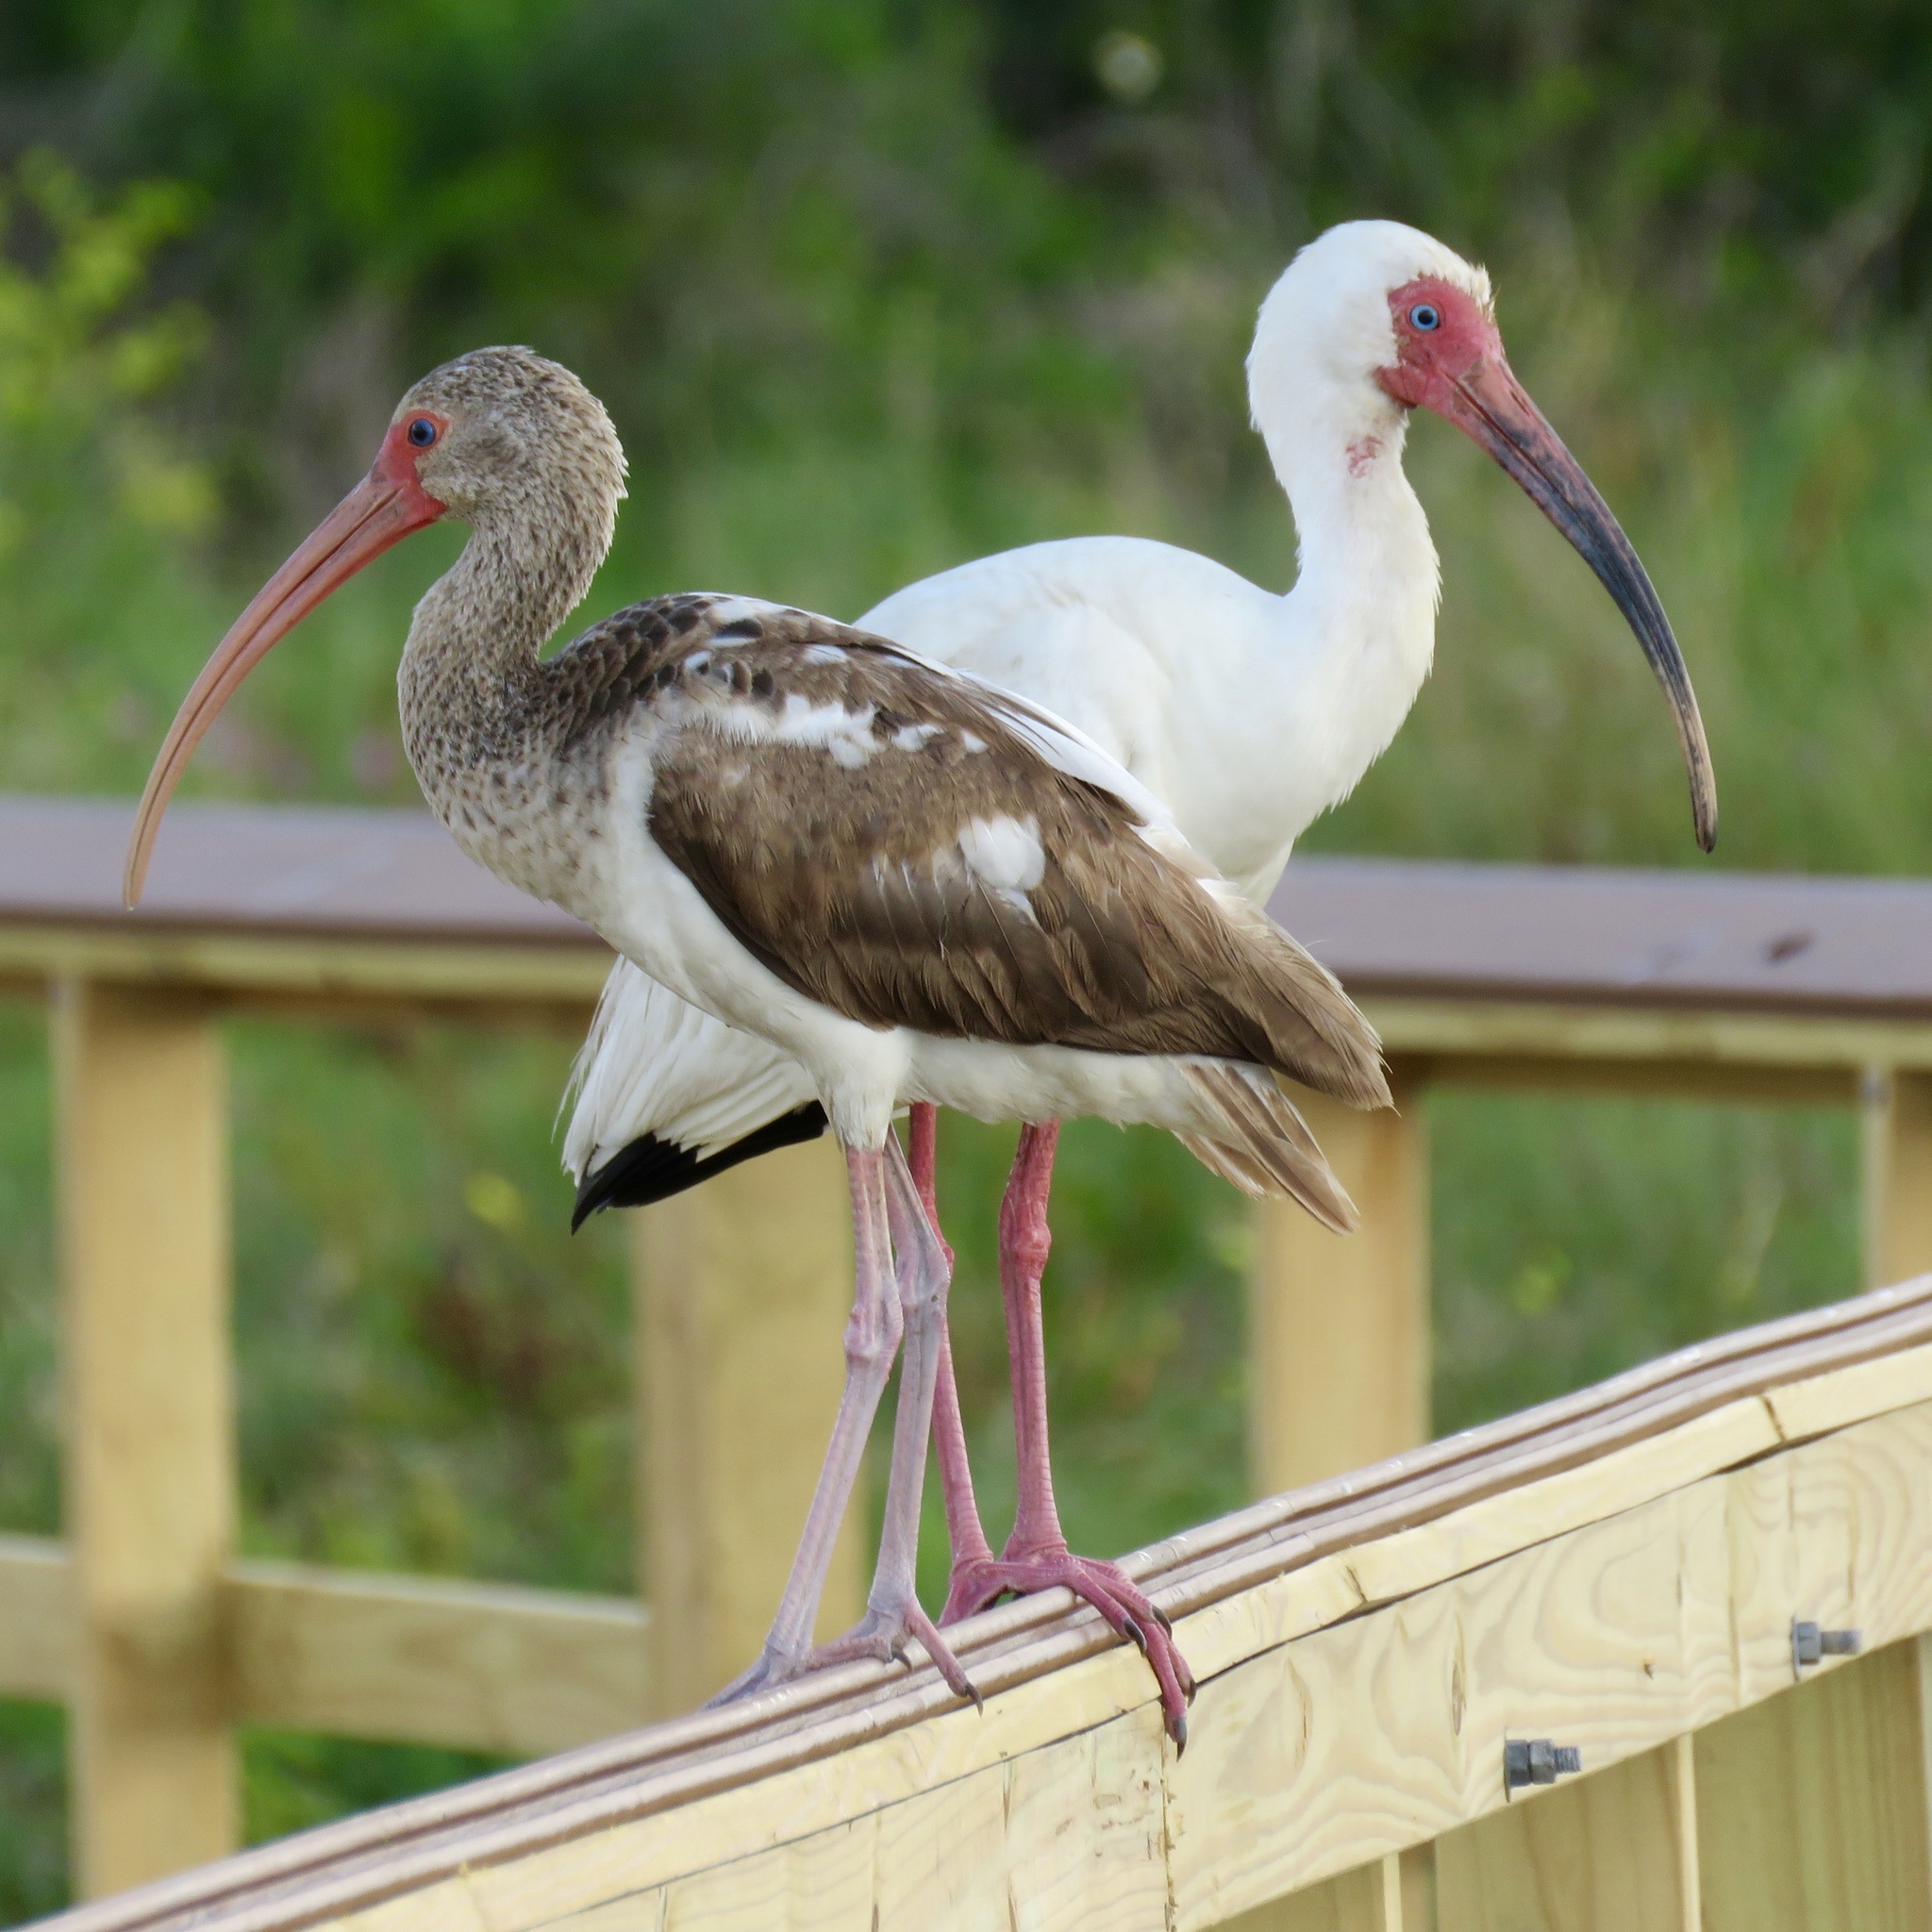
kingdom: Animalia
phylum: Chordata
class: Aves
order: Pelecaniformes
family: Threskiornithidae
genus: Eudocimus
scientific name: Eudocimus albus
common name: White ibis
